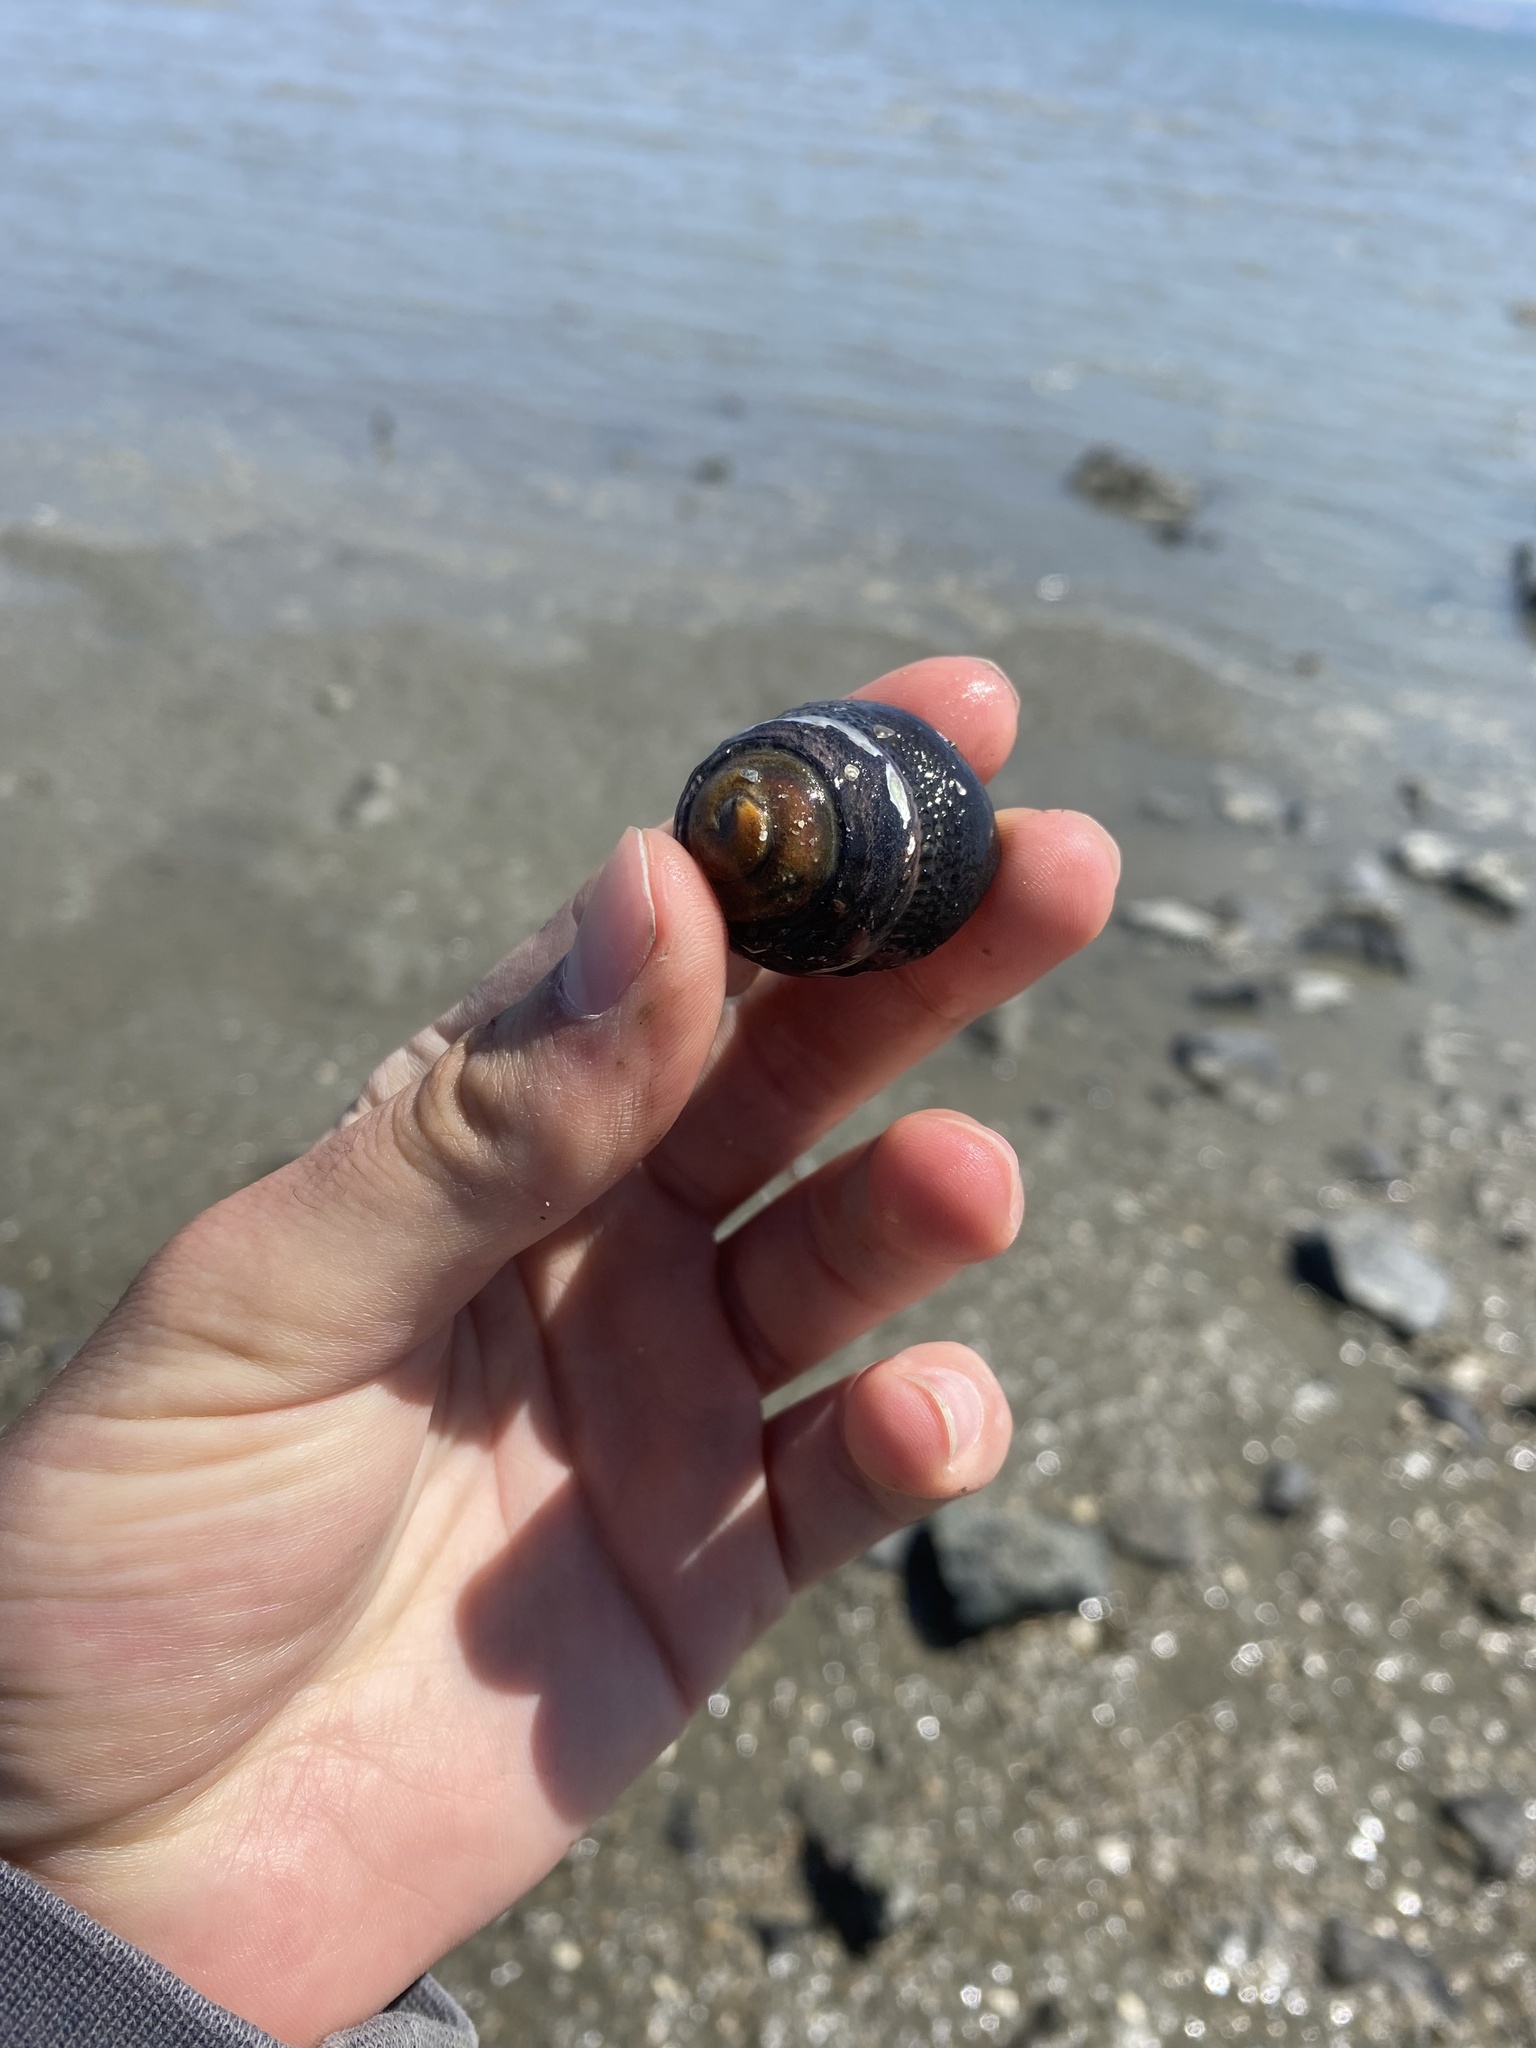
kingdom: Animalia
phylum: Mollusca
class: Gastropoda
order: Trochida
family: Tegulidae
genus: Tegula
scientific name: Tegula funebralis
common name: Black tegula
